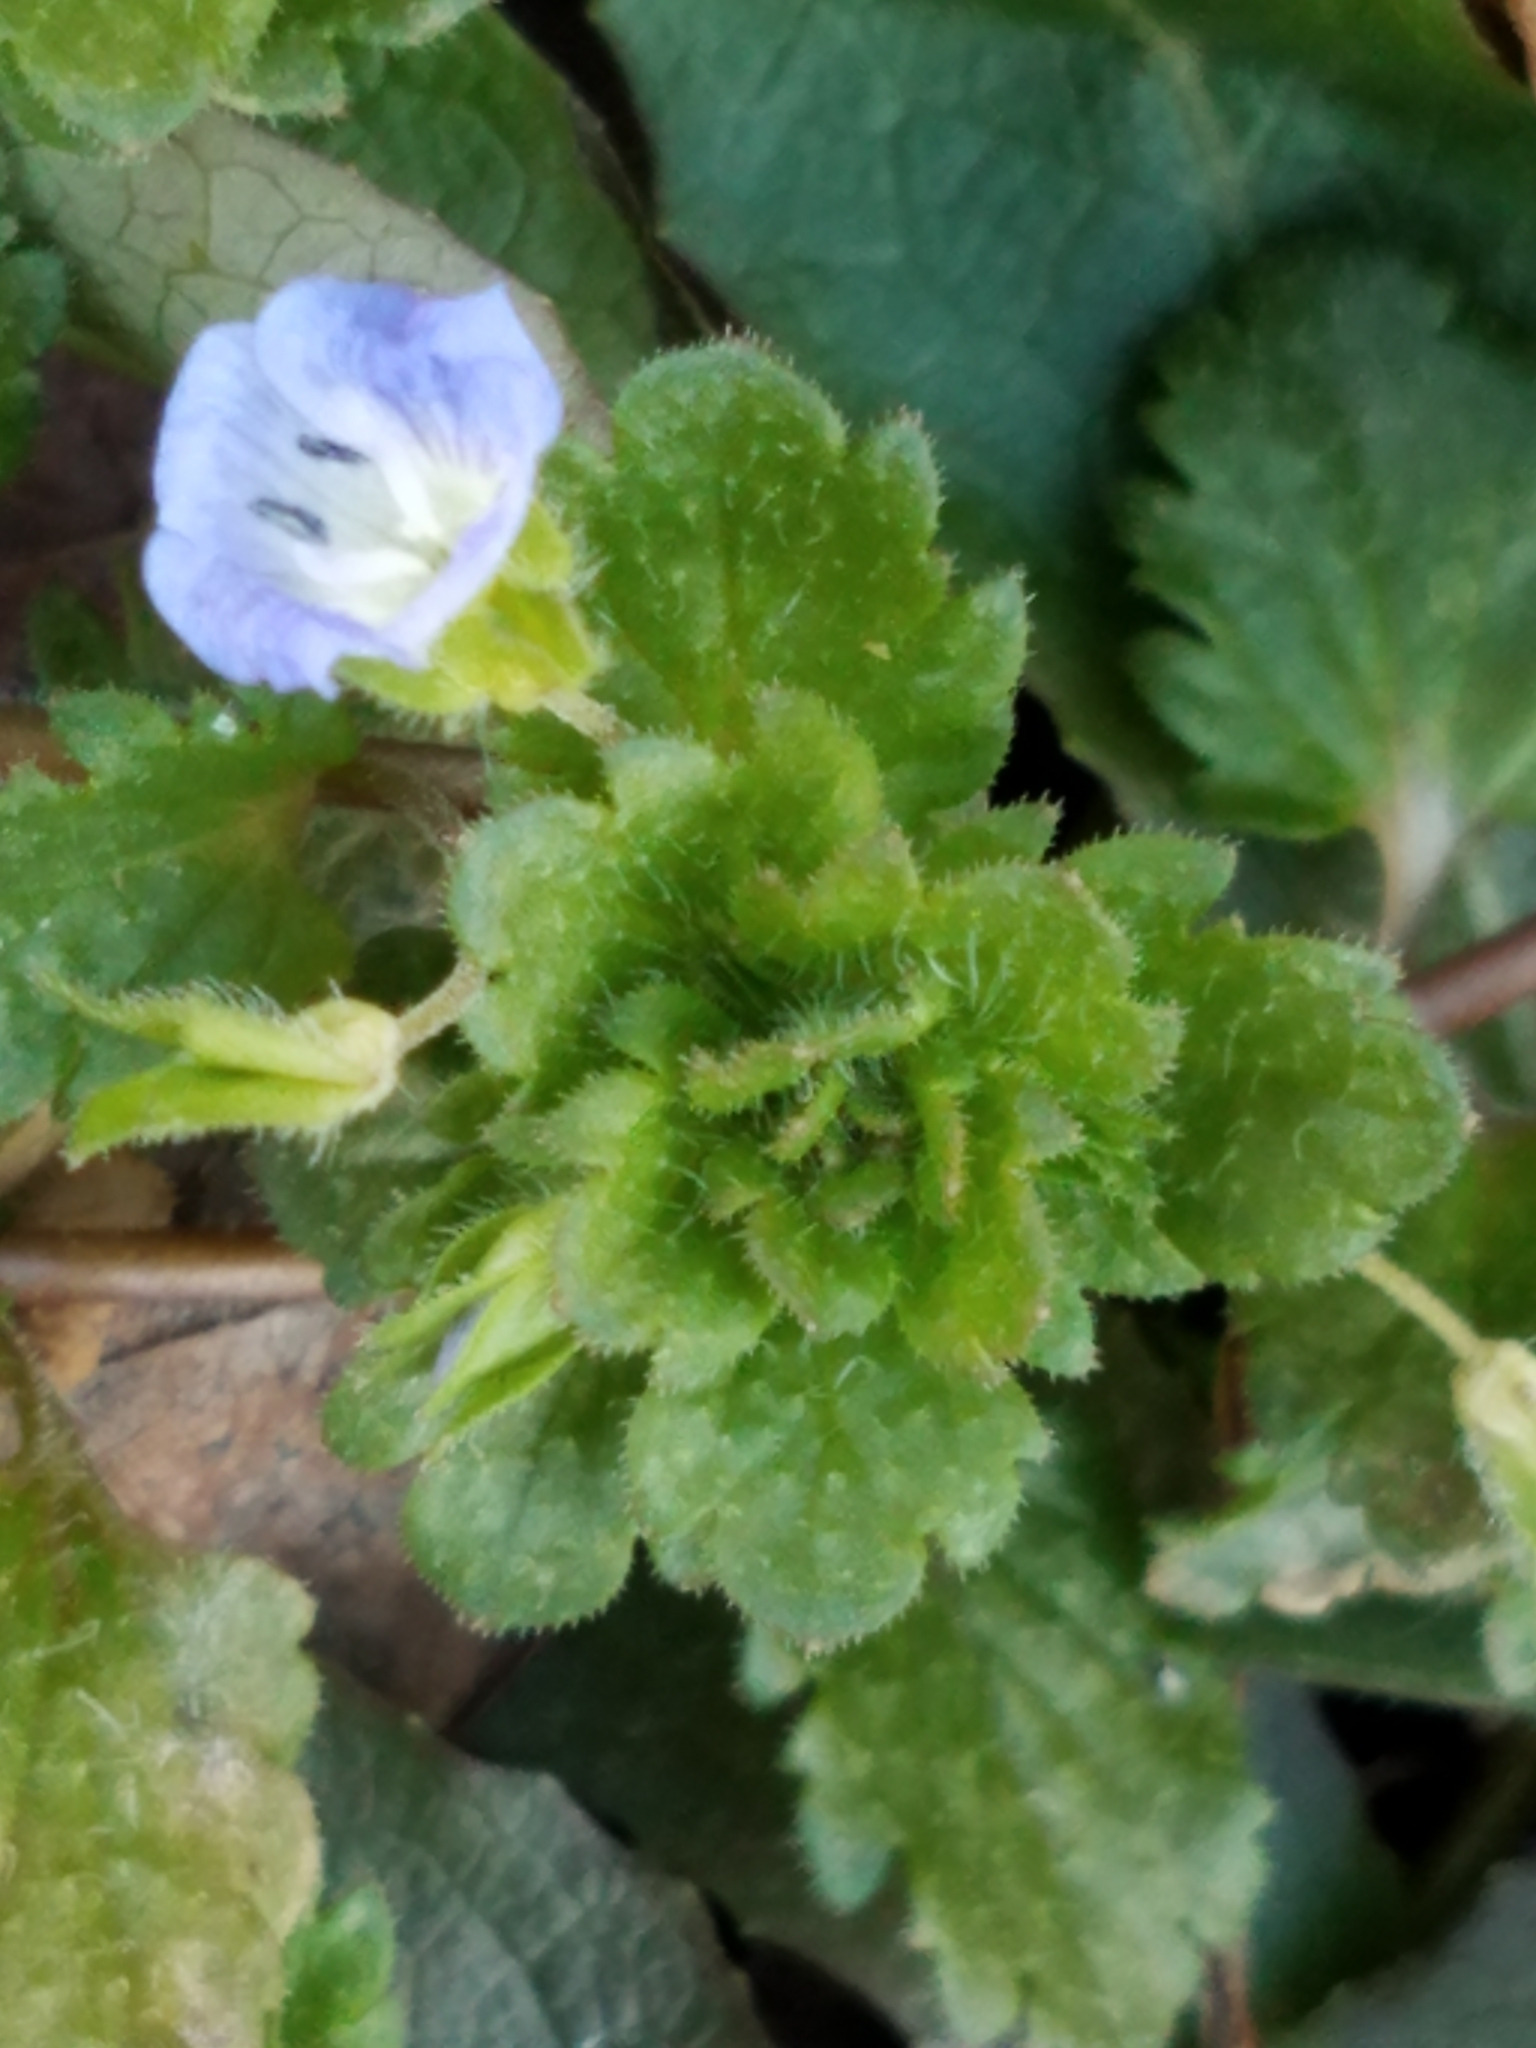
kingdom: Plantae
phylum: Tracheophyta
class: Magnoliopsida
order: Lamiales
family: Plantaginaceae
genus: Veronica
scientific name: Veronica persica
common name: Common field-speedwell
